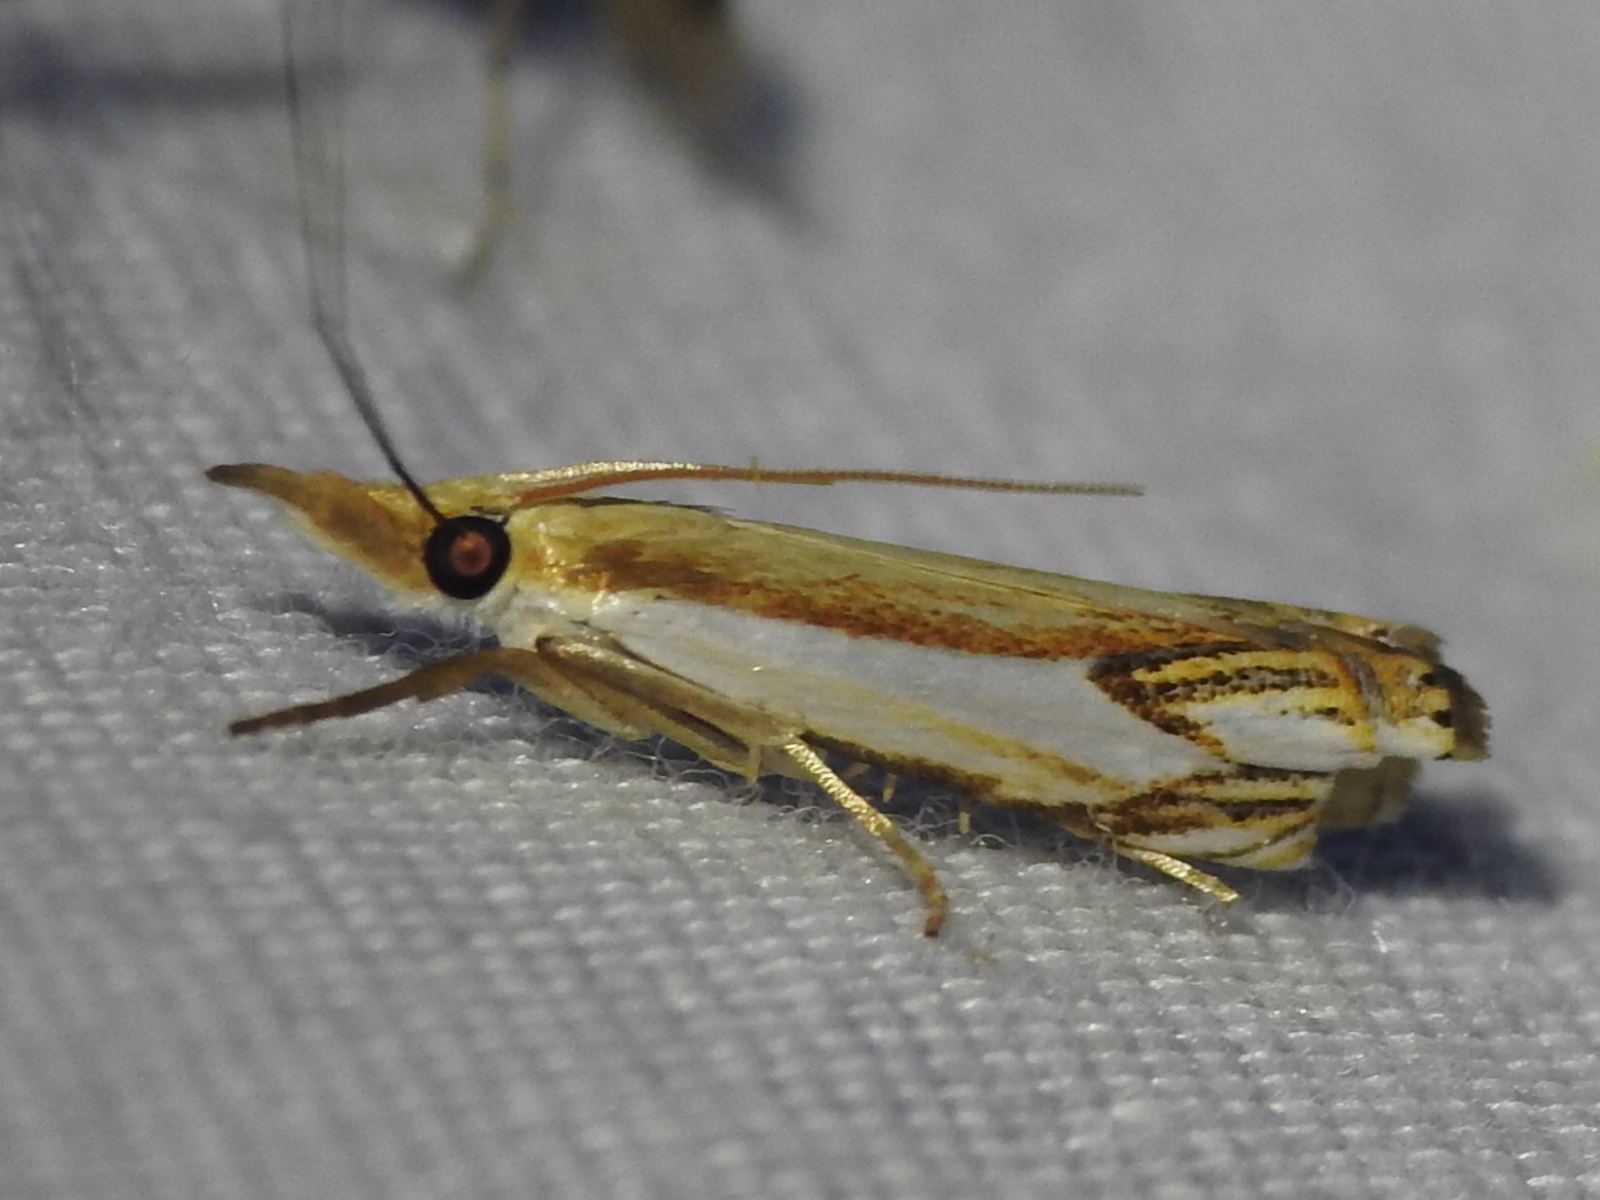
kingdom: Animalia
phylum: Arthropoda
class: Insecta
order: Lepidoptera
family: Crambidae
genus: Crambus
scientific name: Crambus agitatellus
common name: Double-banded grass-veneer
